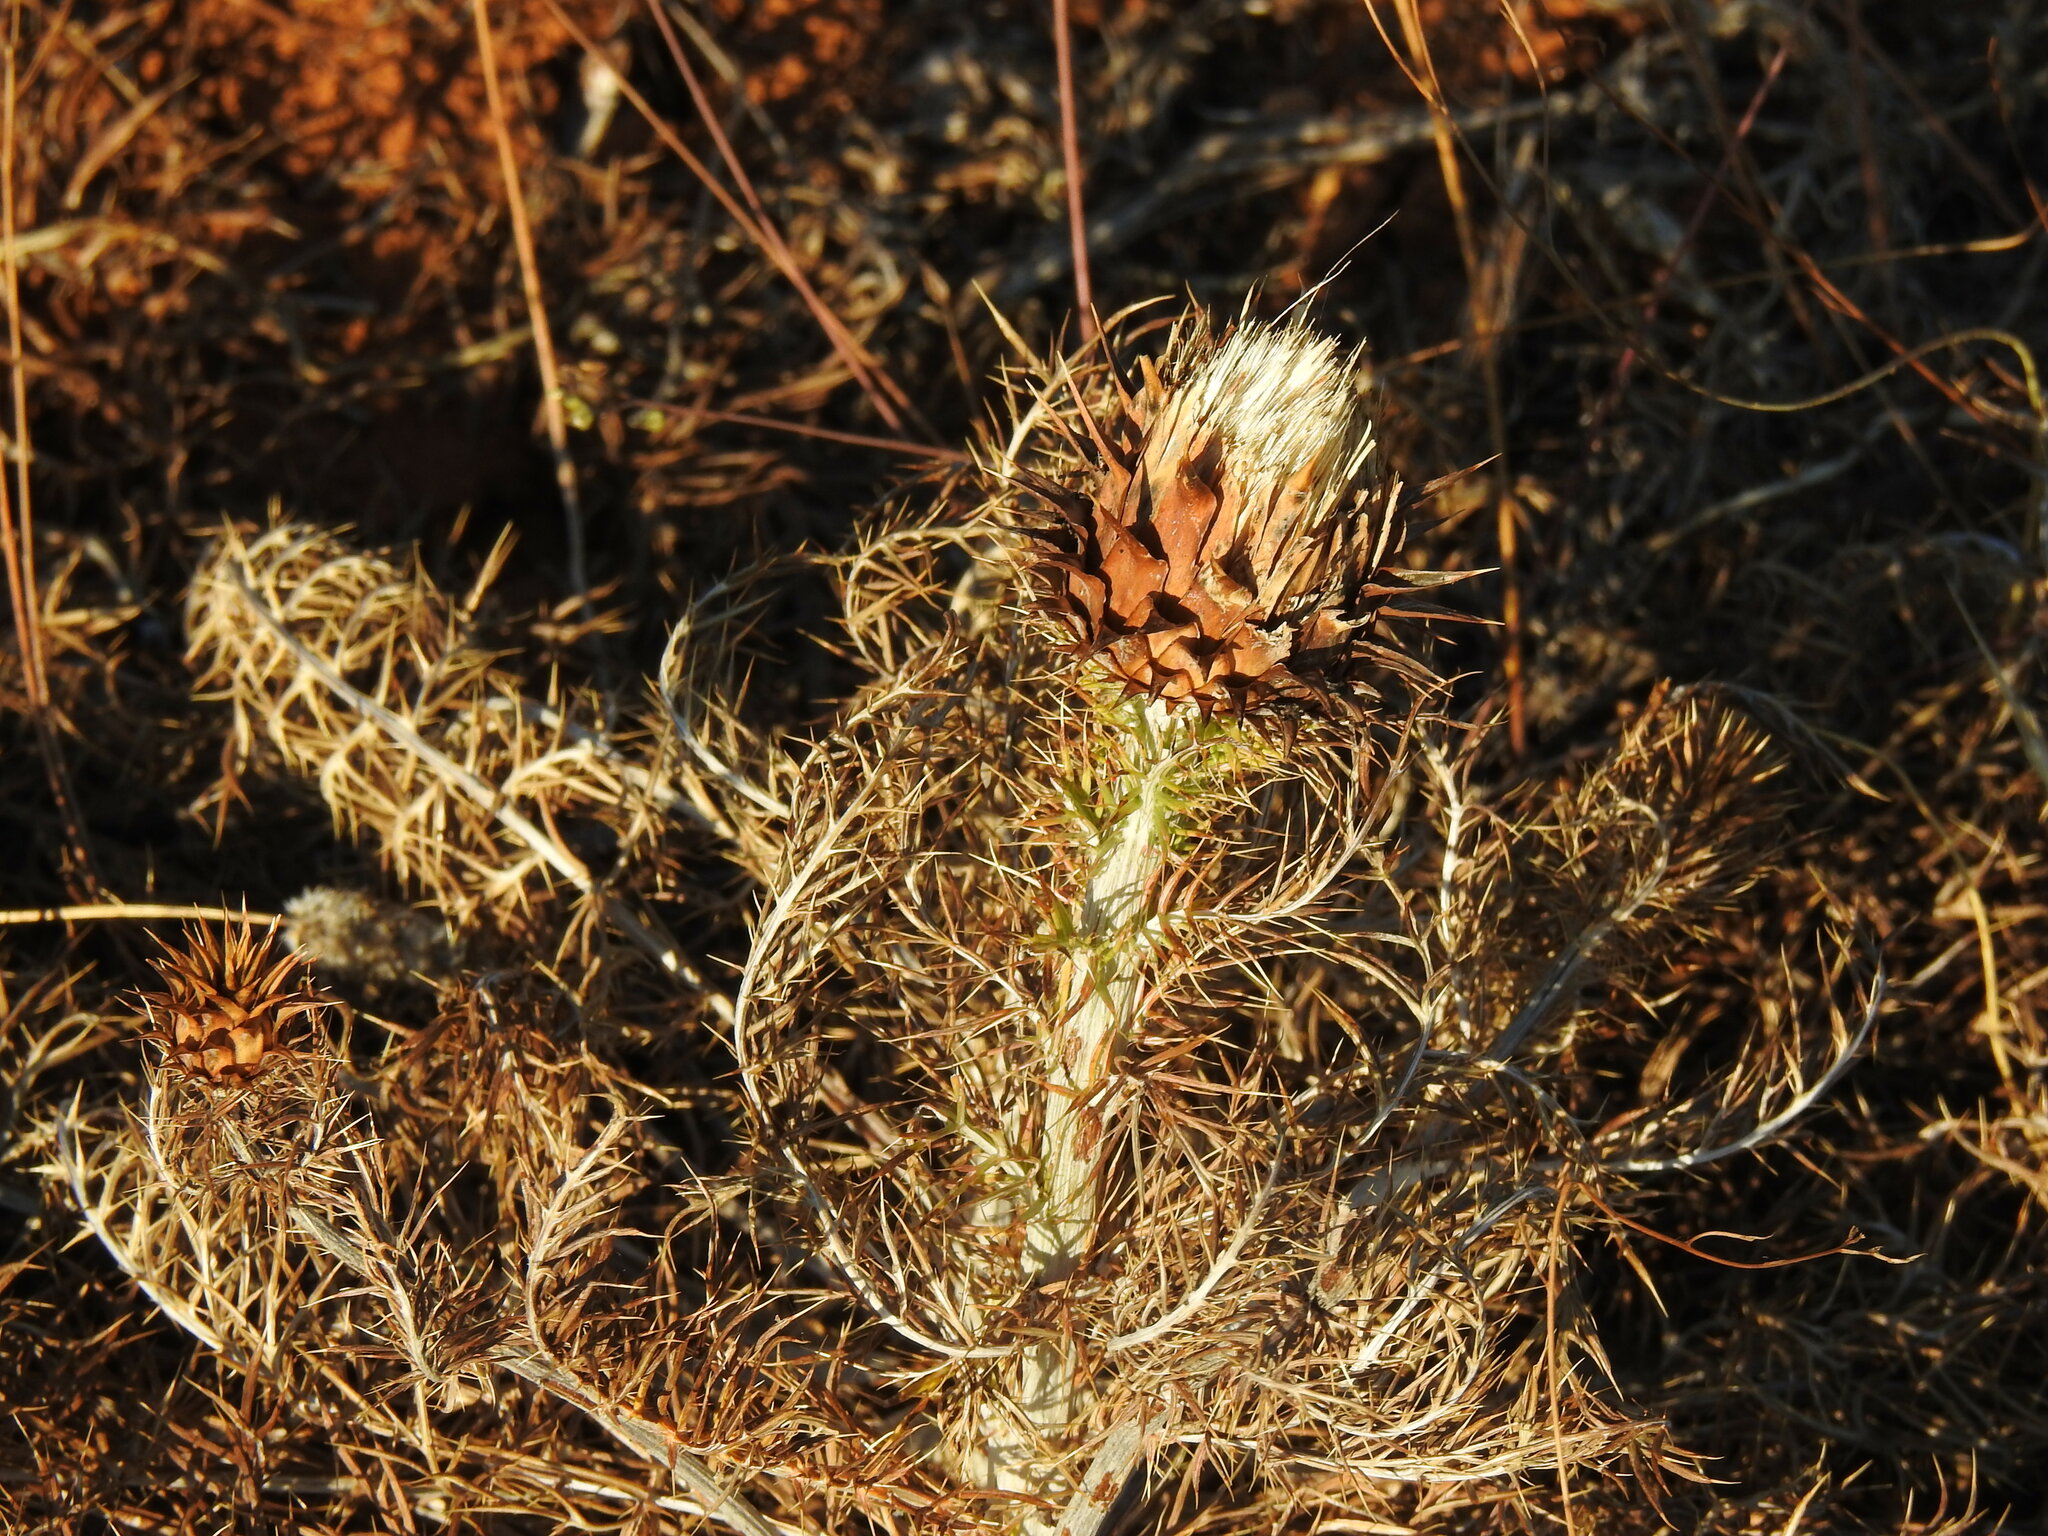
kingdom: Plantae
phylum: Tracheophyta
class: Magnoliopsida
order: Asterales
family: Asteraceae
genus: Cynara
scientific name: Cynara humilis
